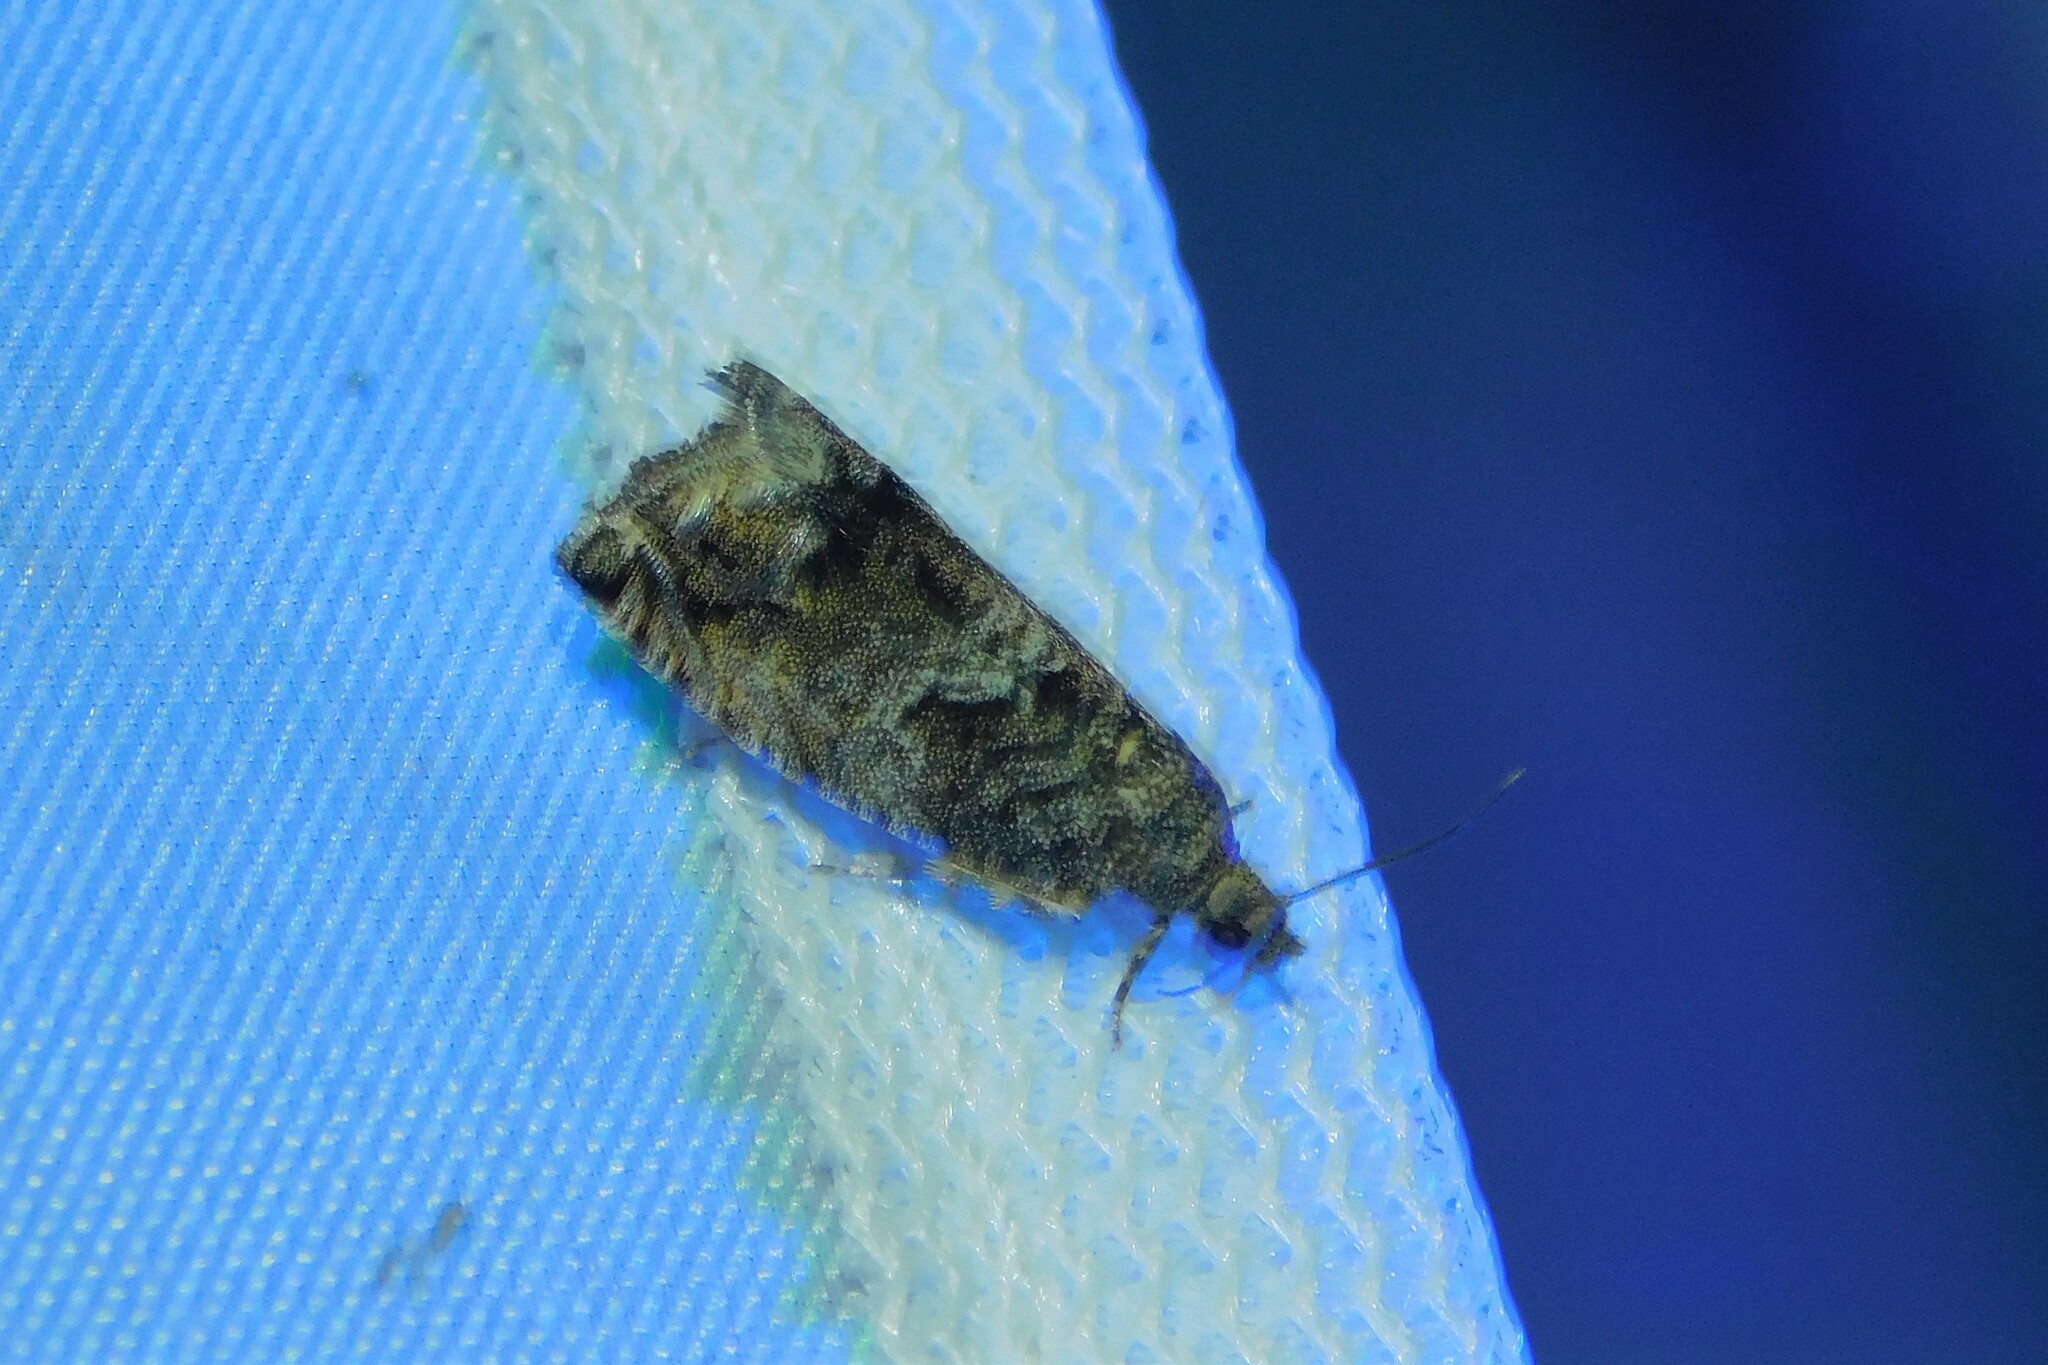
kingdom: Animalia
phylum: Arthropoda
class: Insecta
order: Lepidoptera
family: Tortricidae
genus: Cydia
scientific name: Cydia fagiglandana
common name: Large beech piercer
